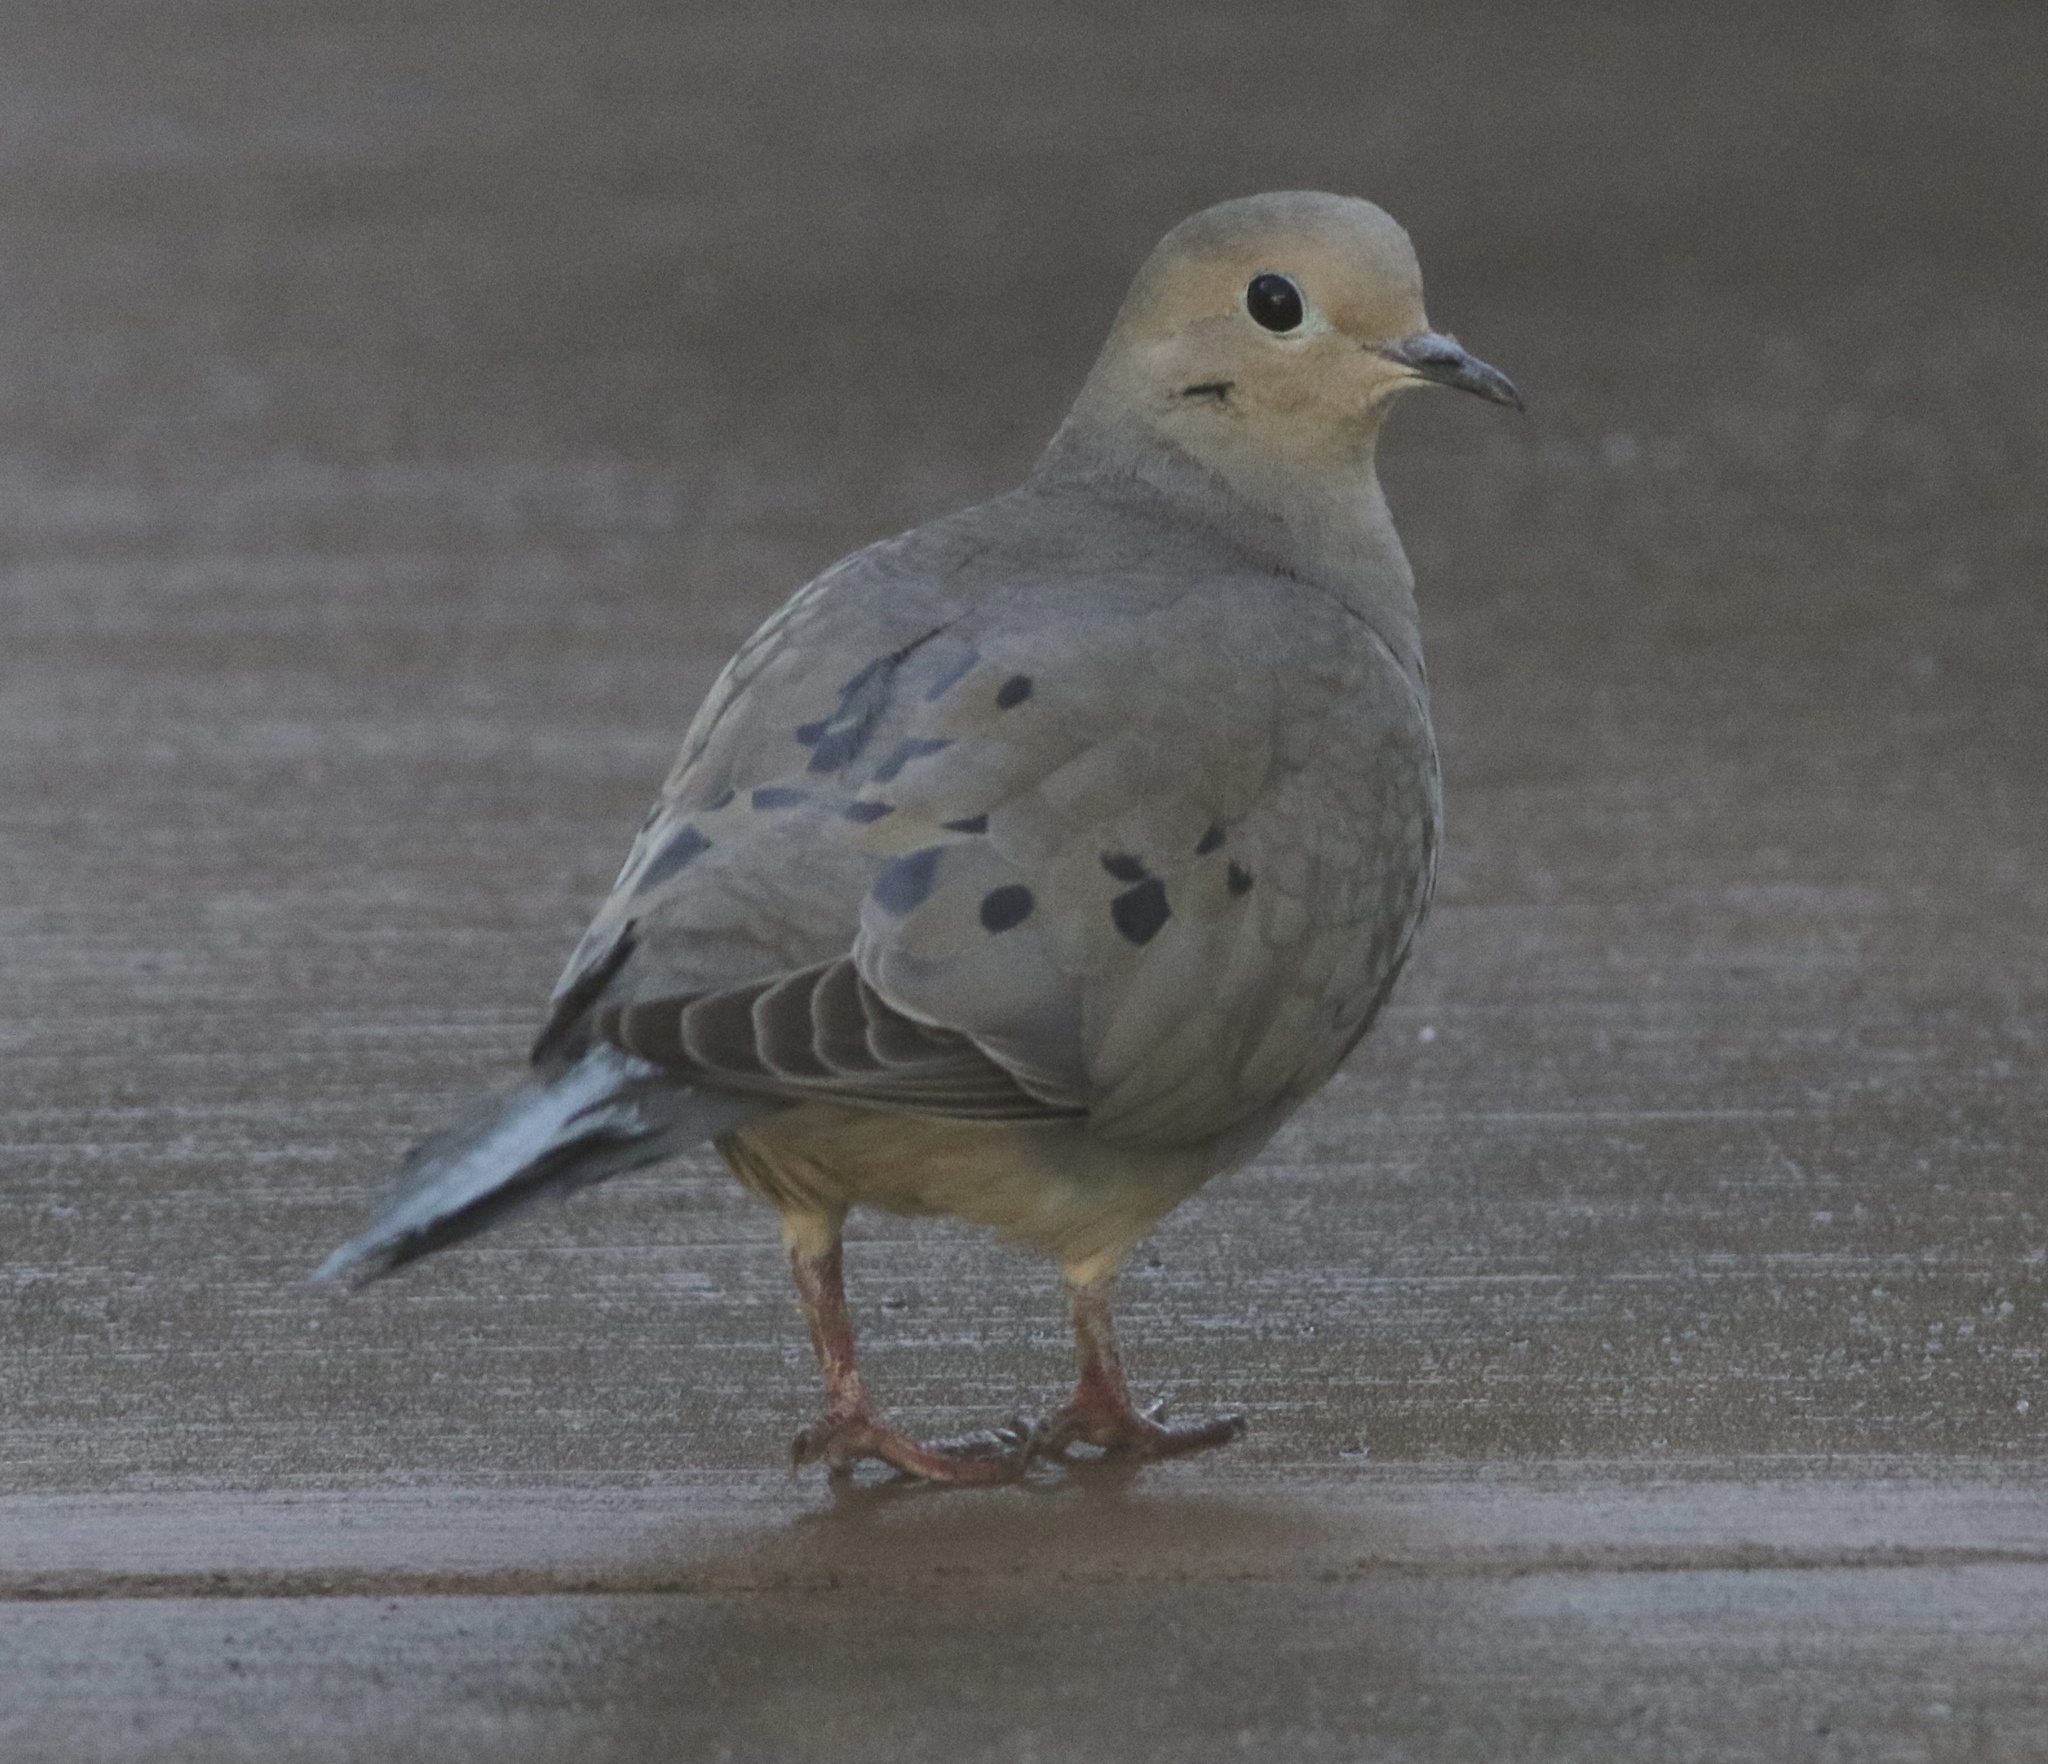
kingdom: Animalia
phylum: Chordata
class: Aves
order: Columbiformes
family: Columbidae
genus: Zenaida
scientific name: Zenaida macroura
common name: Mourning dove
